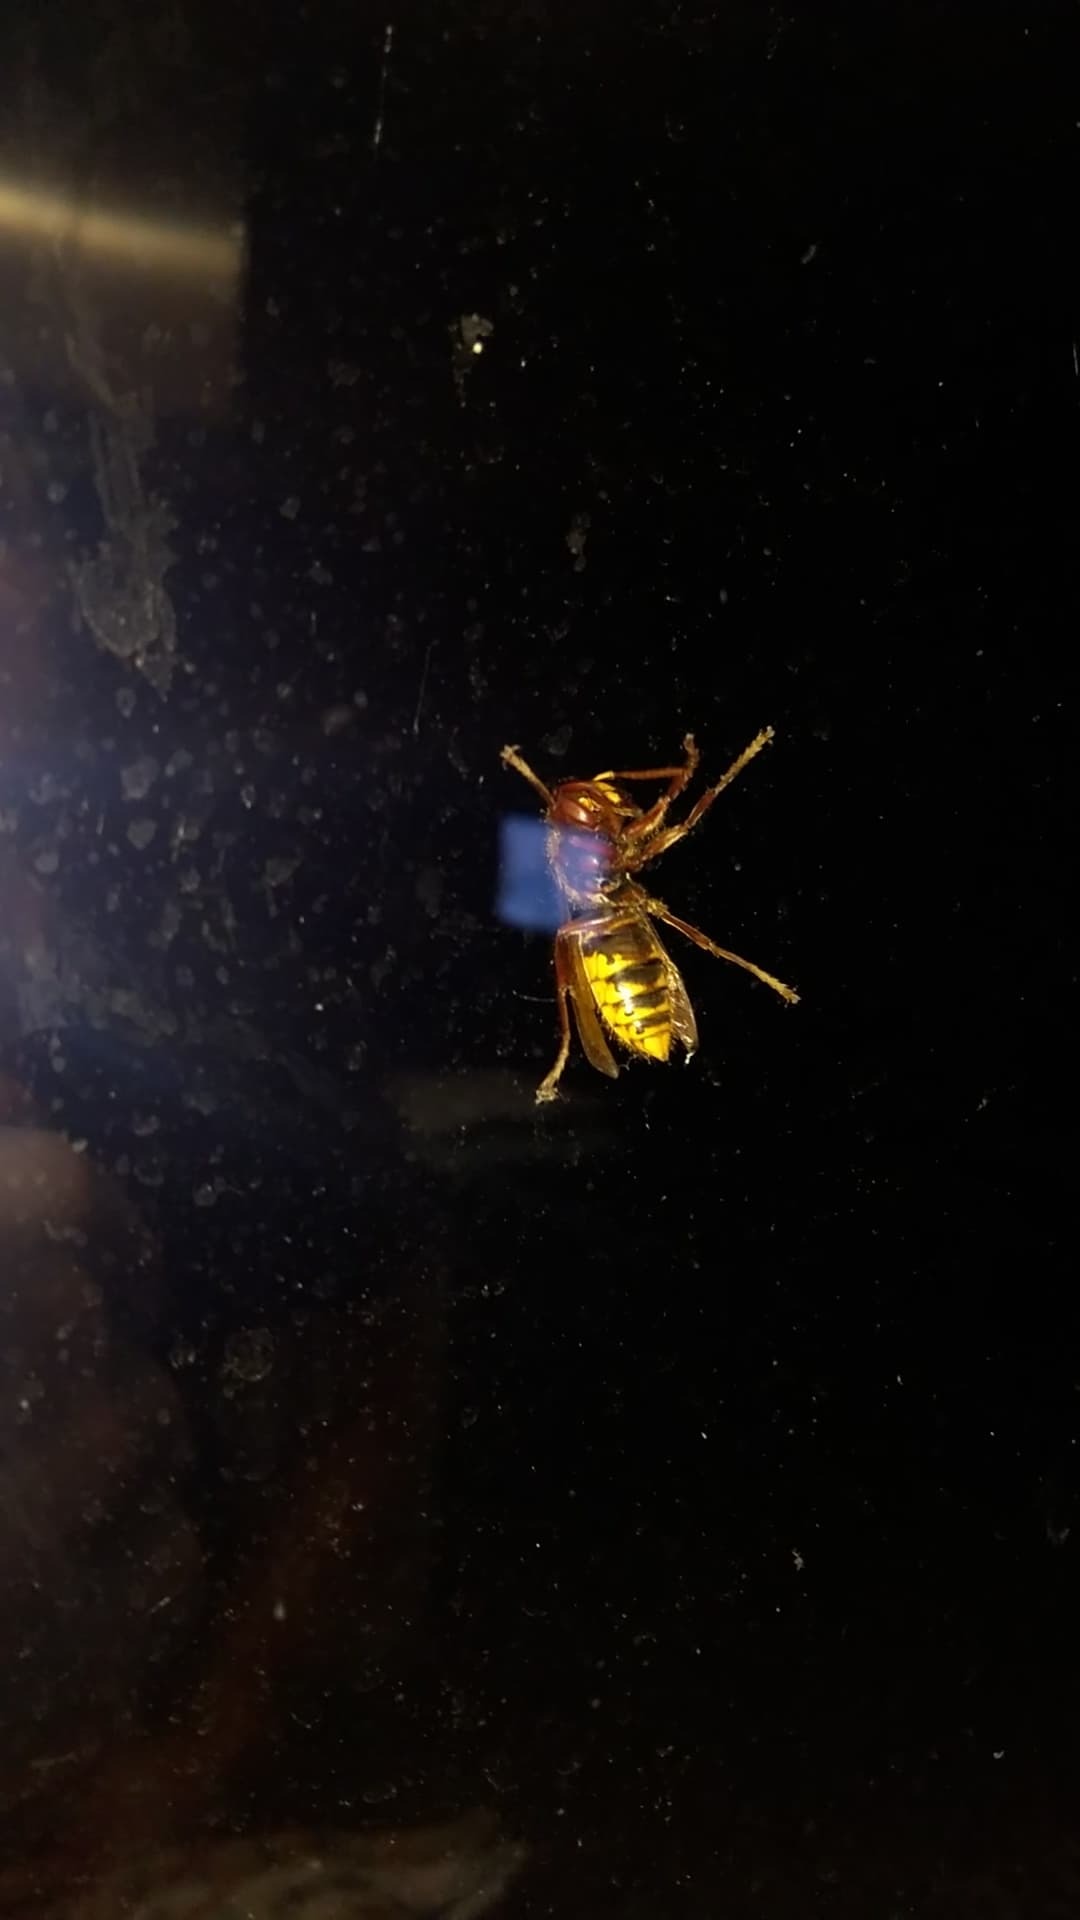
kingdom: Animalia
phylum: Arthropoda
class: Insecta
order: Hymenoptera
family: Vespidae
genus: Vespa
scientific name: Vespa crabro
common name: Hornet
